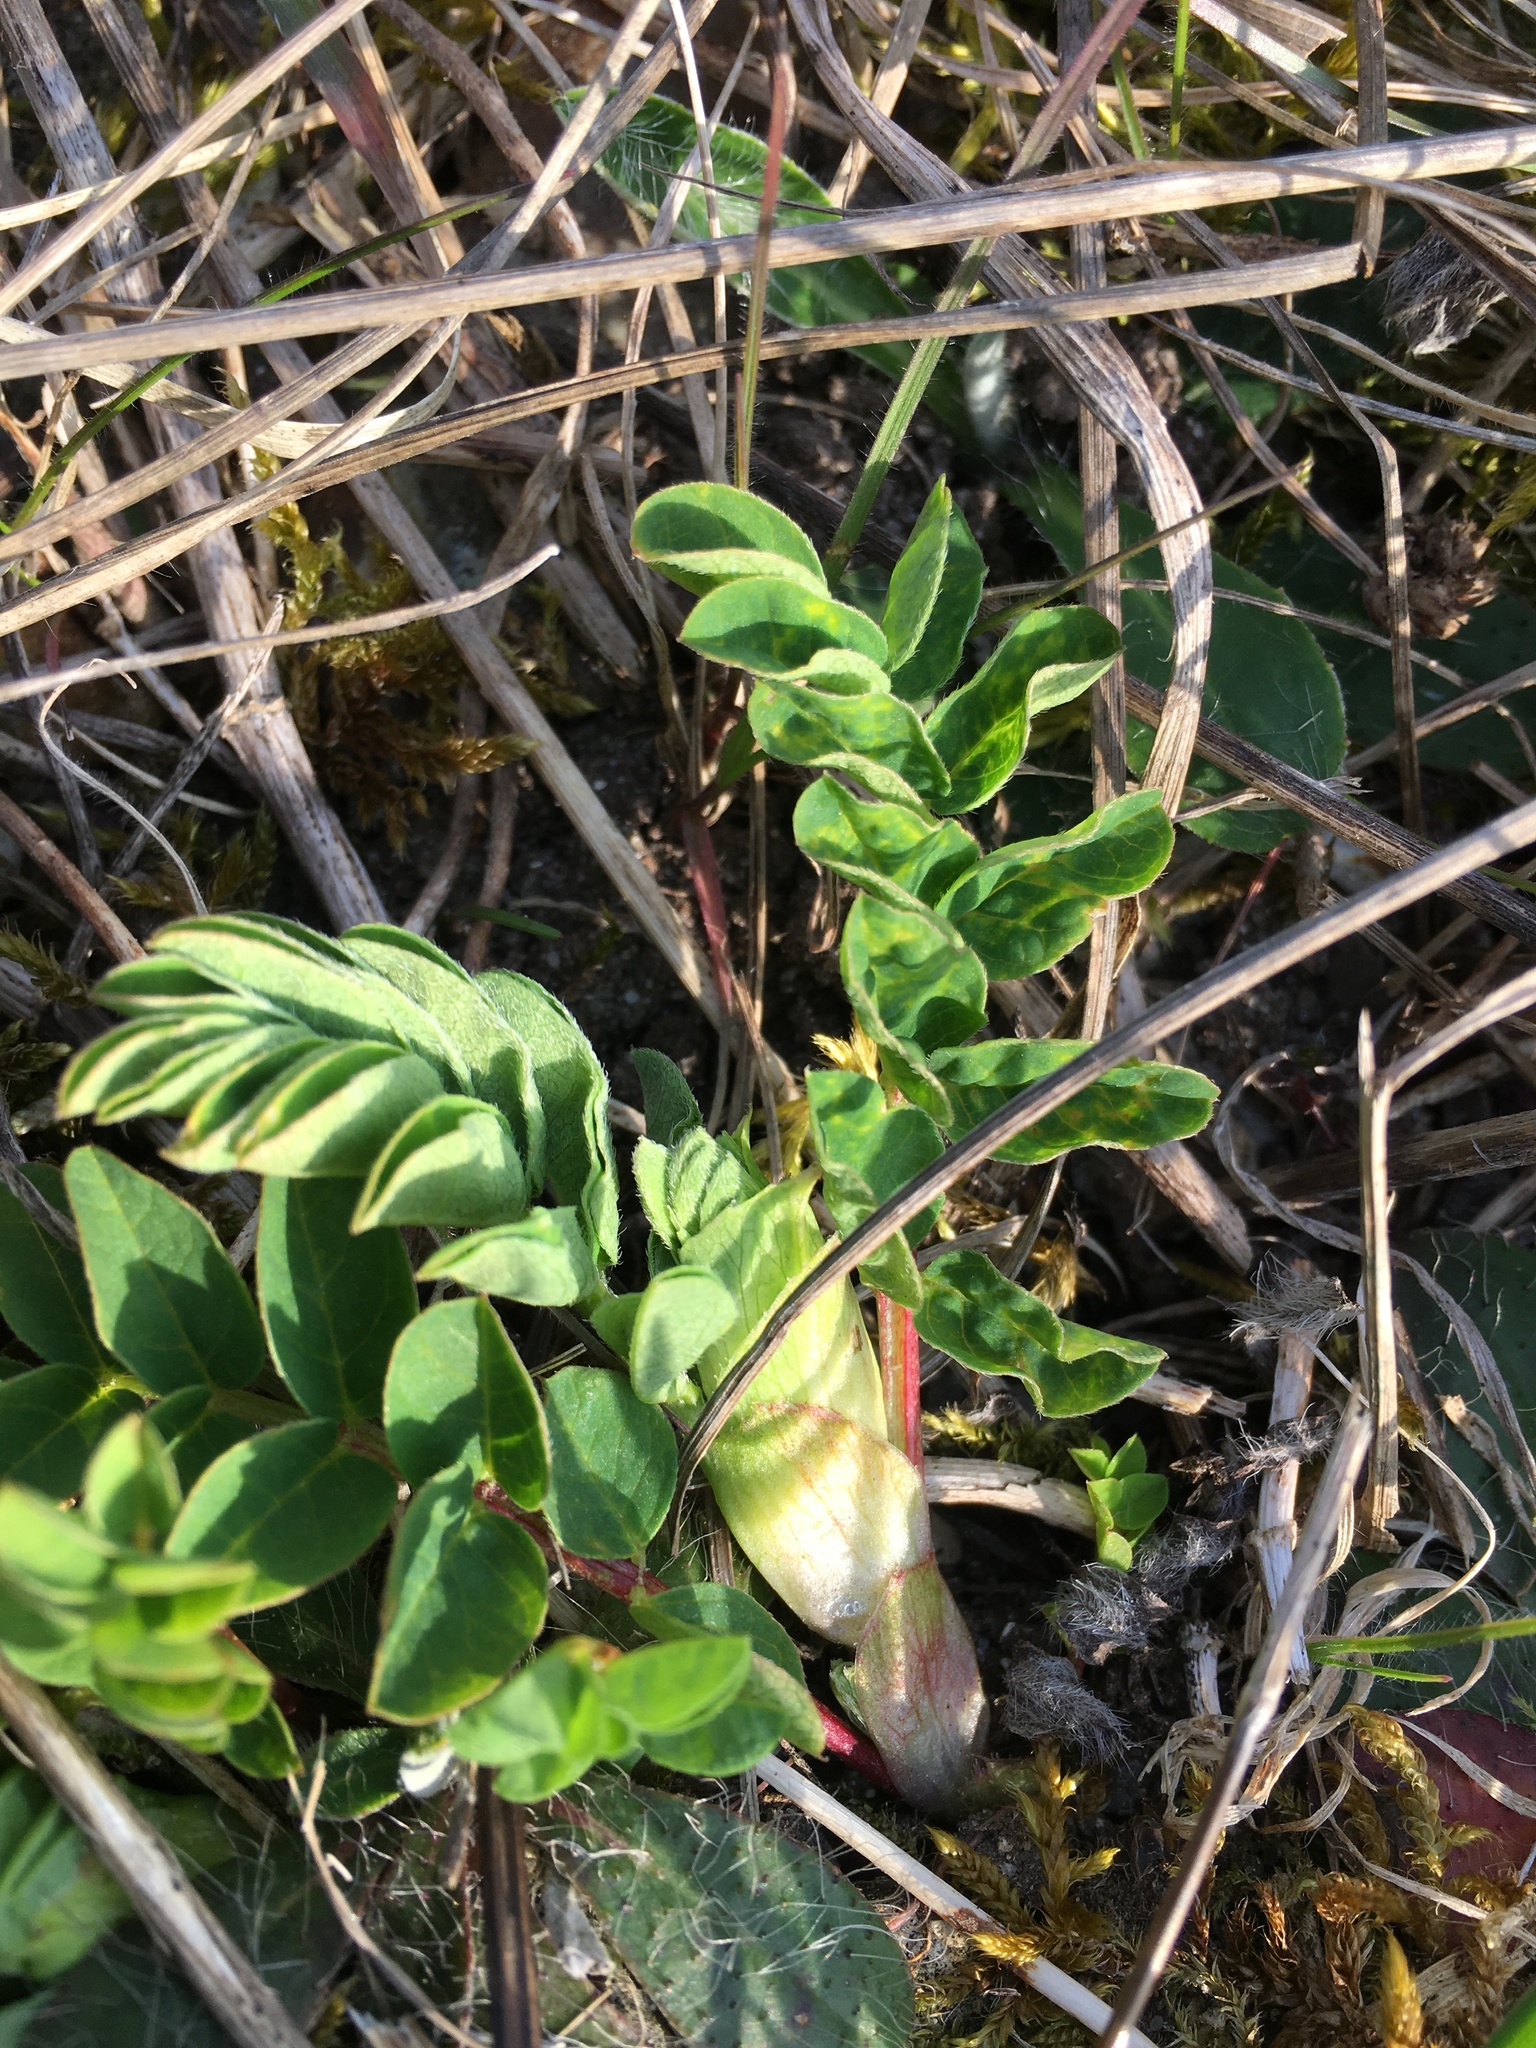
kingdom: Plantae
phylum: Tracheophyta
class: Magnoliopsida
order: Fabales
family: Fabaceae
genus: Astragalus
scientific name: Astragalus glycyphyllos
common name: Wild liquorice
